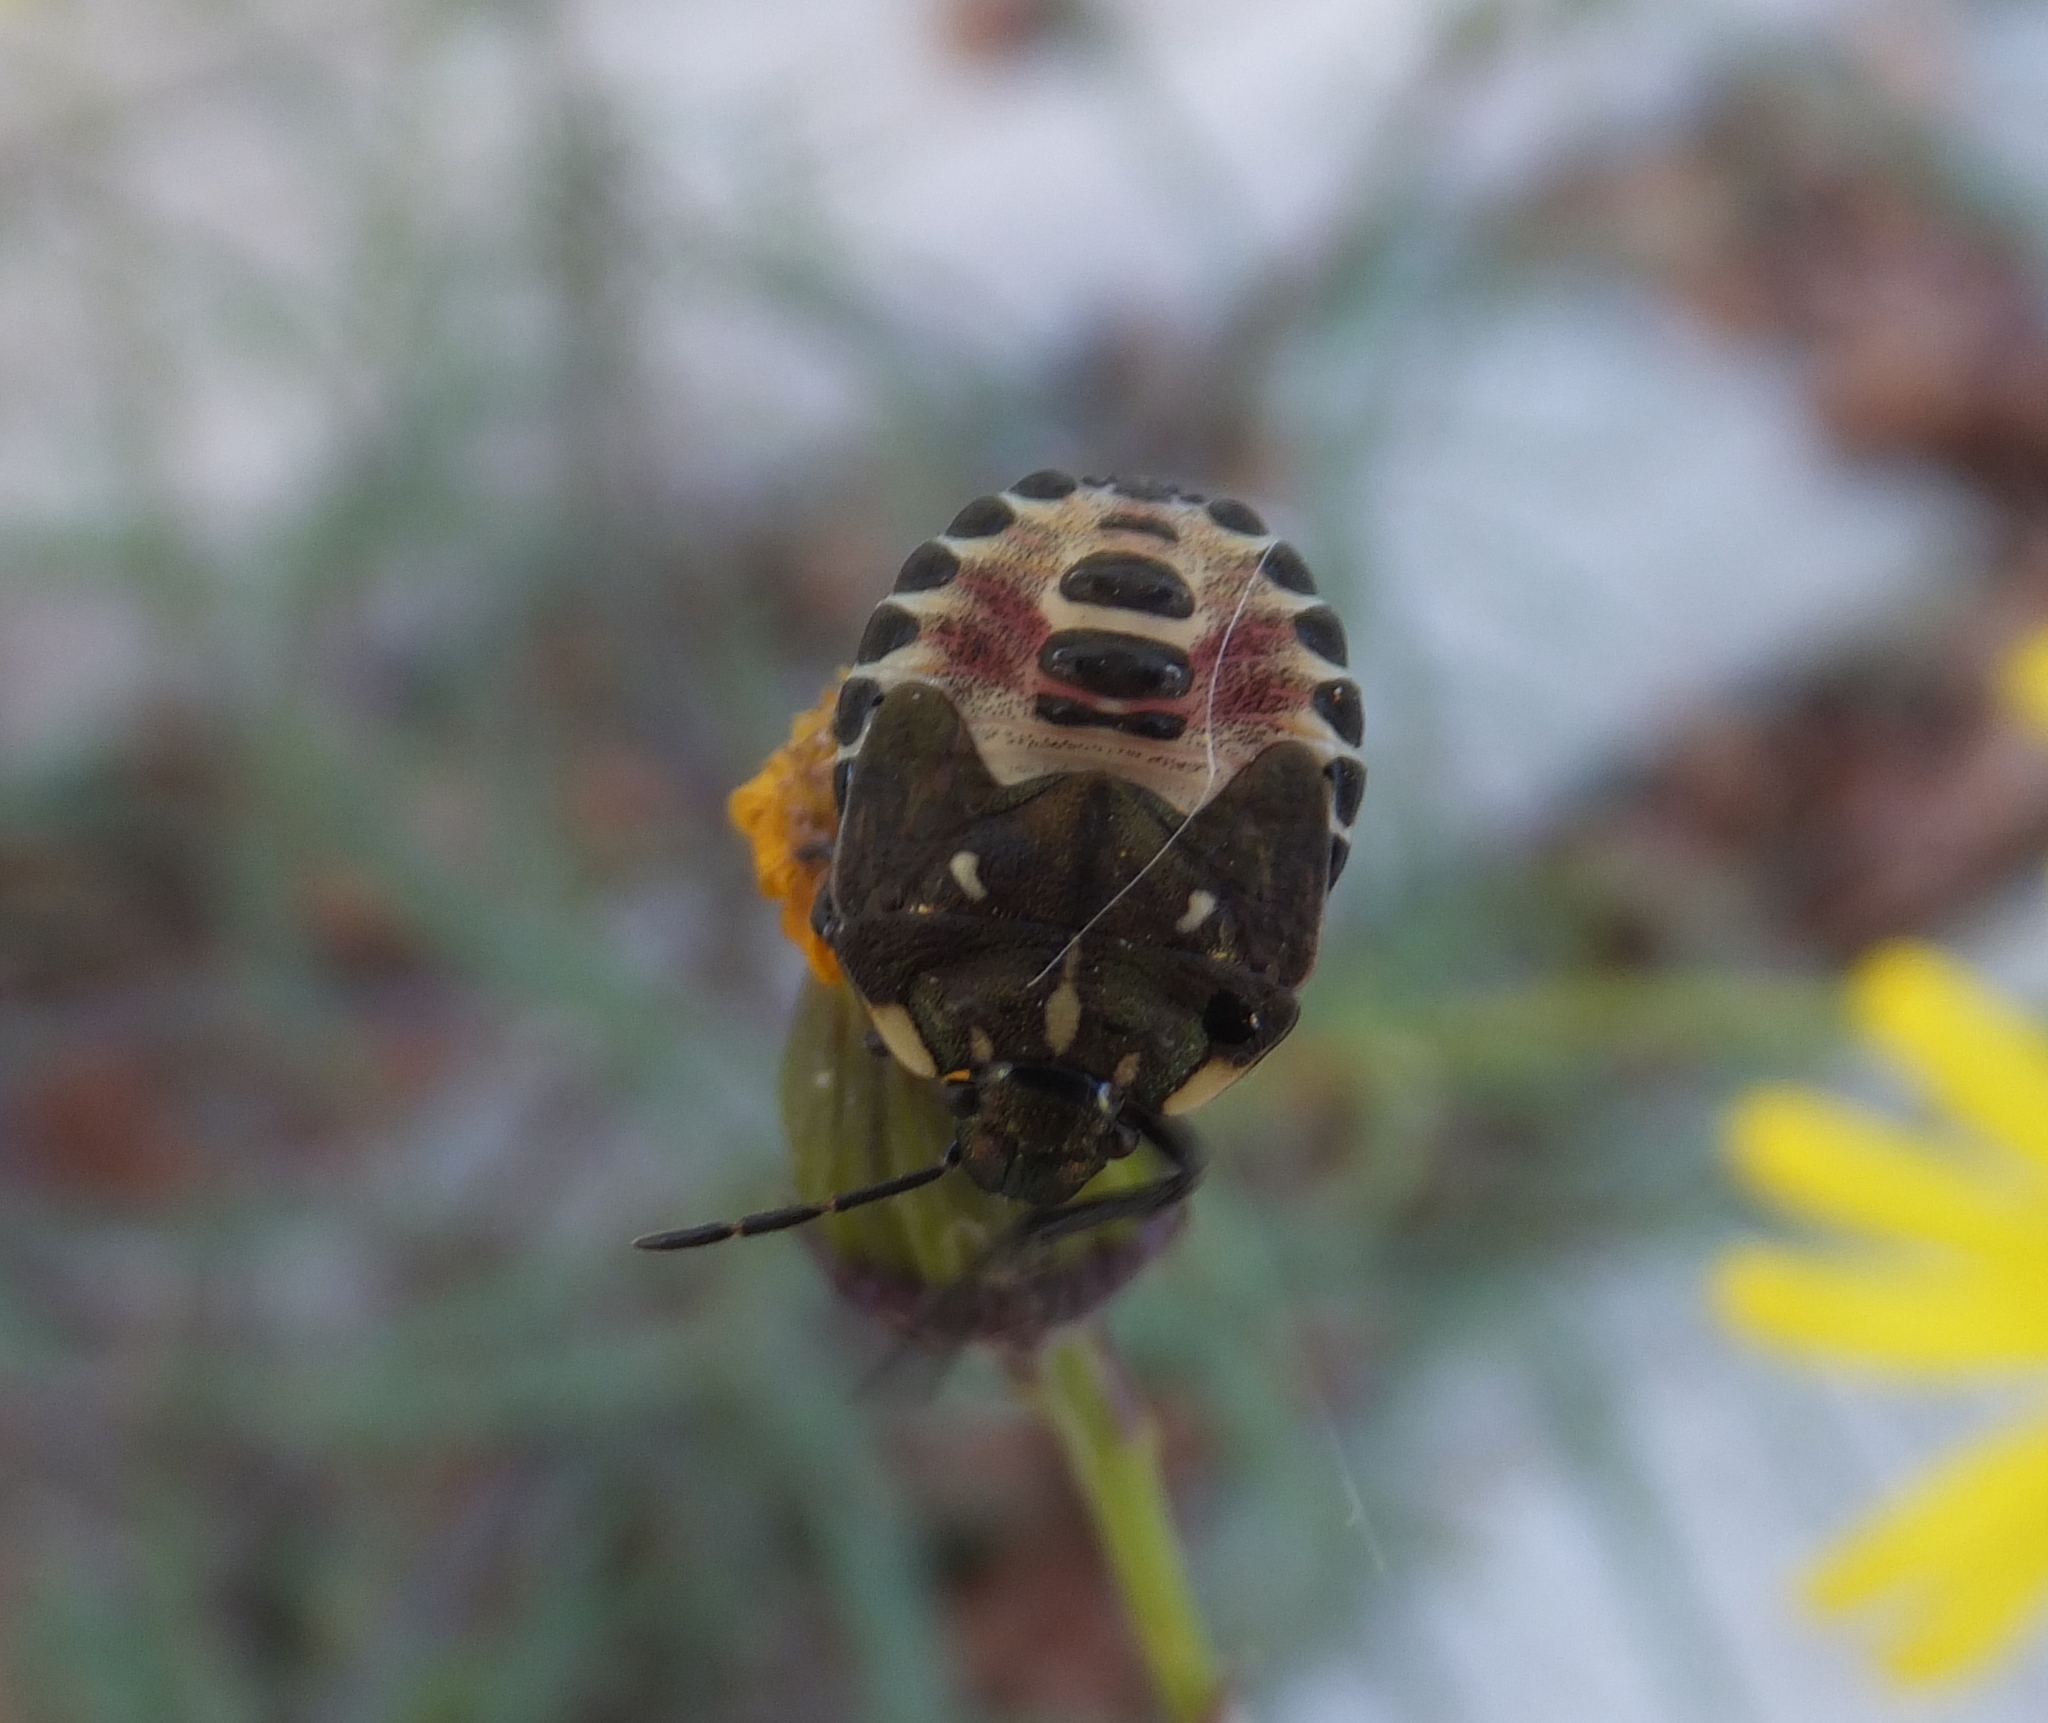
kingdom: Animalia
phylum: Arthropoda
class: Insecta
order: Hemiptera
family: Pentatomidae
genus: Carpocoris
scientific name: Carpocoris purpureipennis
